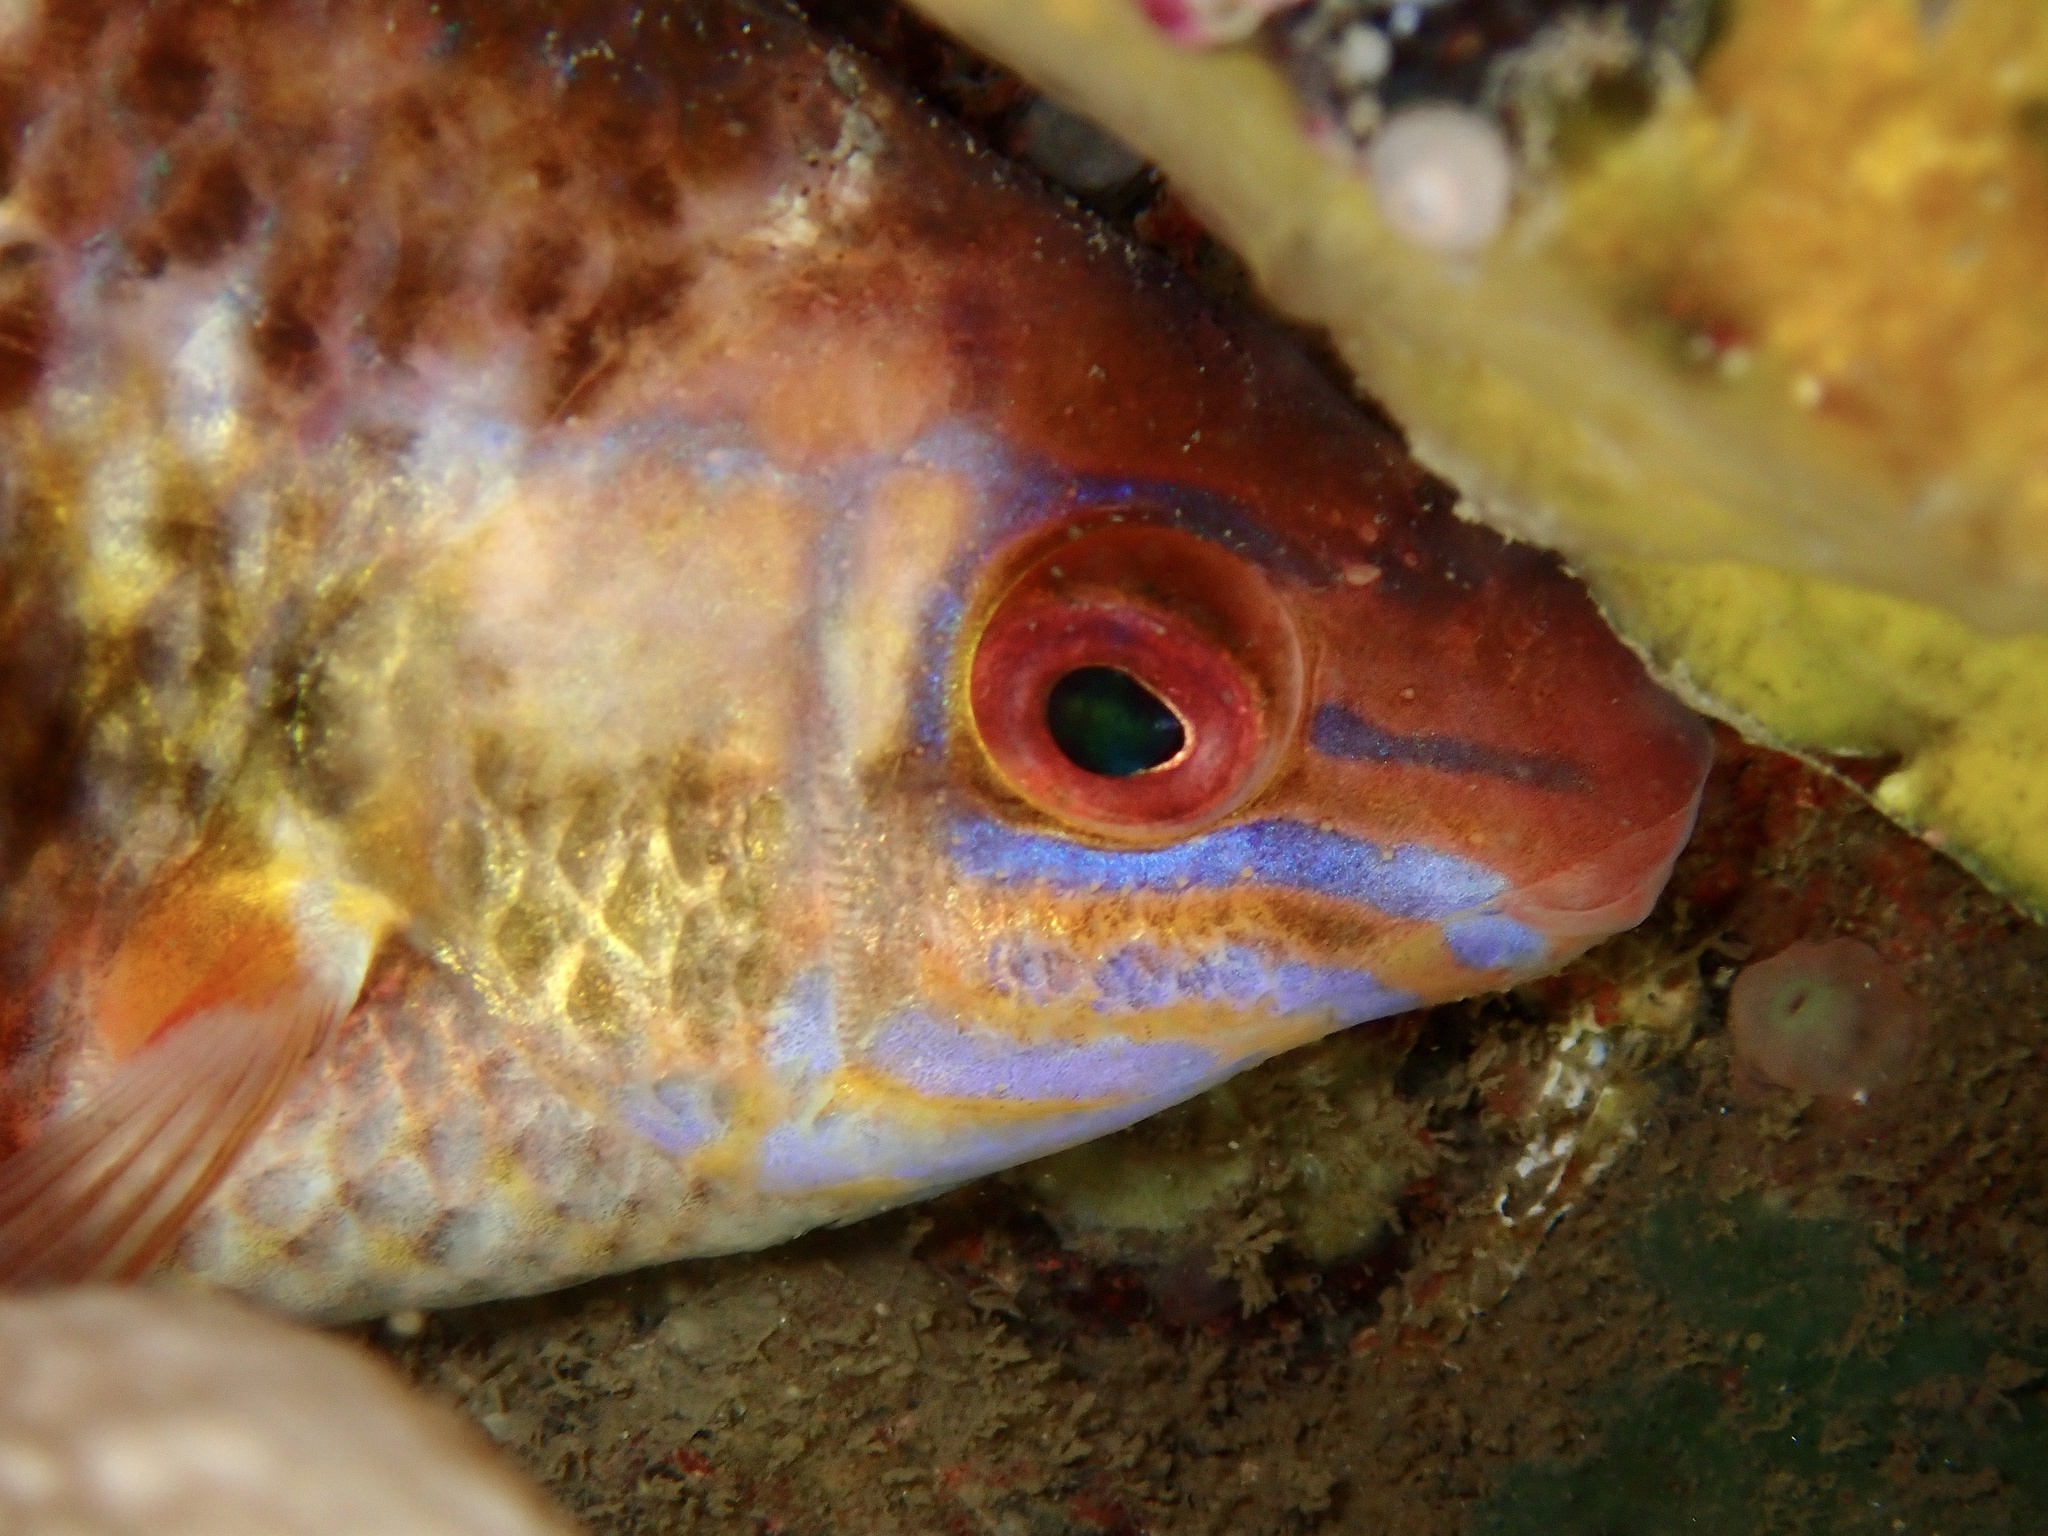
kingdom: Animalia
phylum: Chordata
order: Perciformes
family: Labridae
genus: Centrolabrus
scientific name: Centrolabrus exoletus
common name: Rock cook
